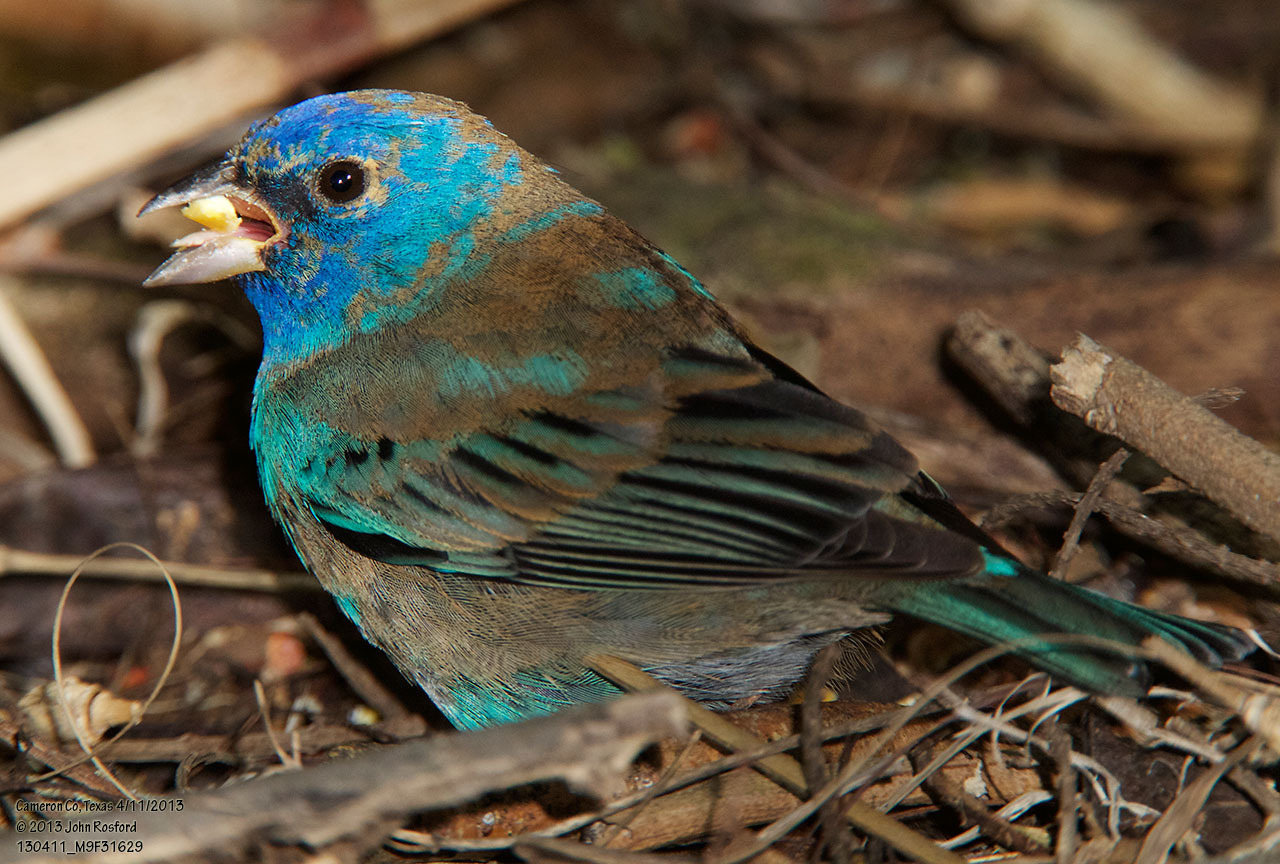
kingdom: Animalia
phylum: Chordata
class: Aves
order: Passeriformes
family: Cardinalidae
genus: Passerina
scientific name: Passerina cyanea
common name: Indigo bunting
